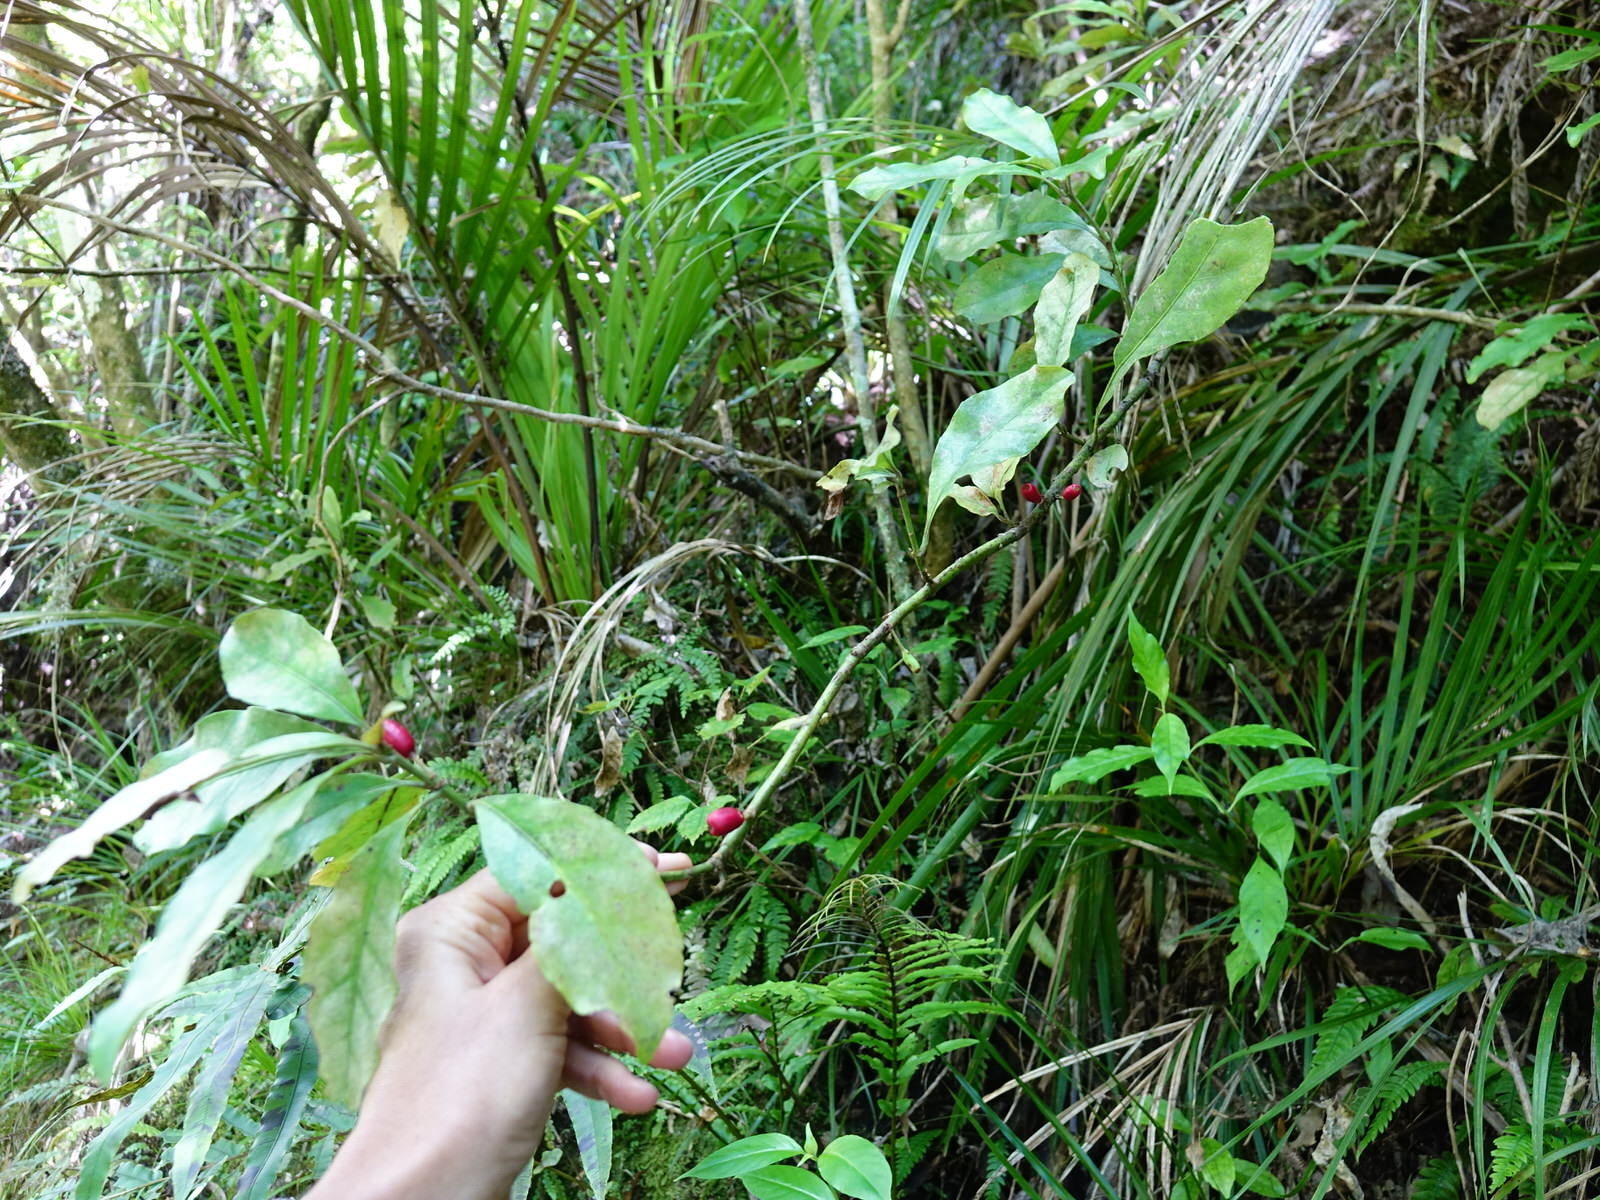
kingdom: Plantae
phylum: Tracheophyta
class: Magnoliopsida
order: Asterales
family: Alseuosmiaceae
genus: Alseuosmia
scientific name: Alseuosmia macrophylla
